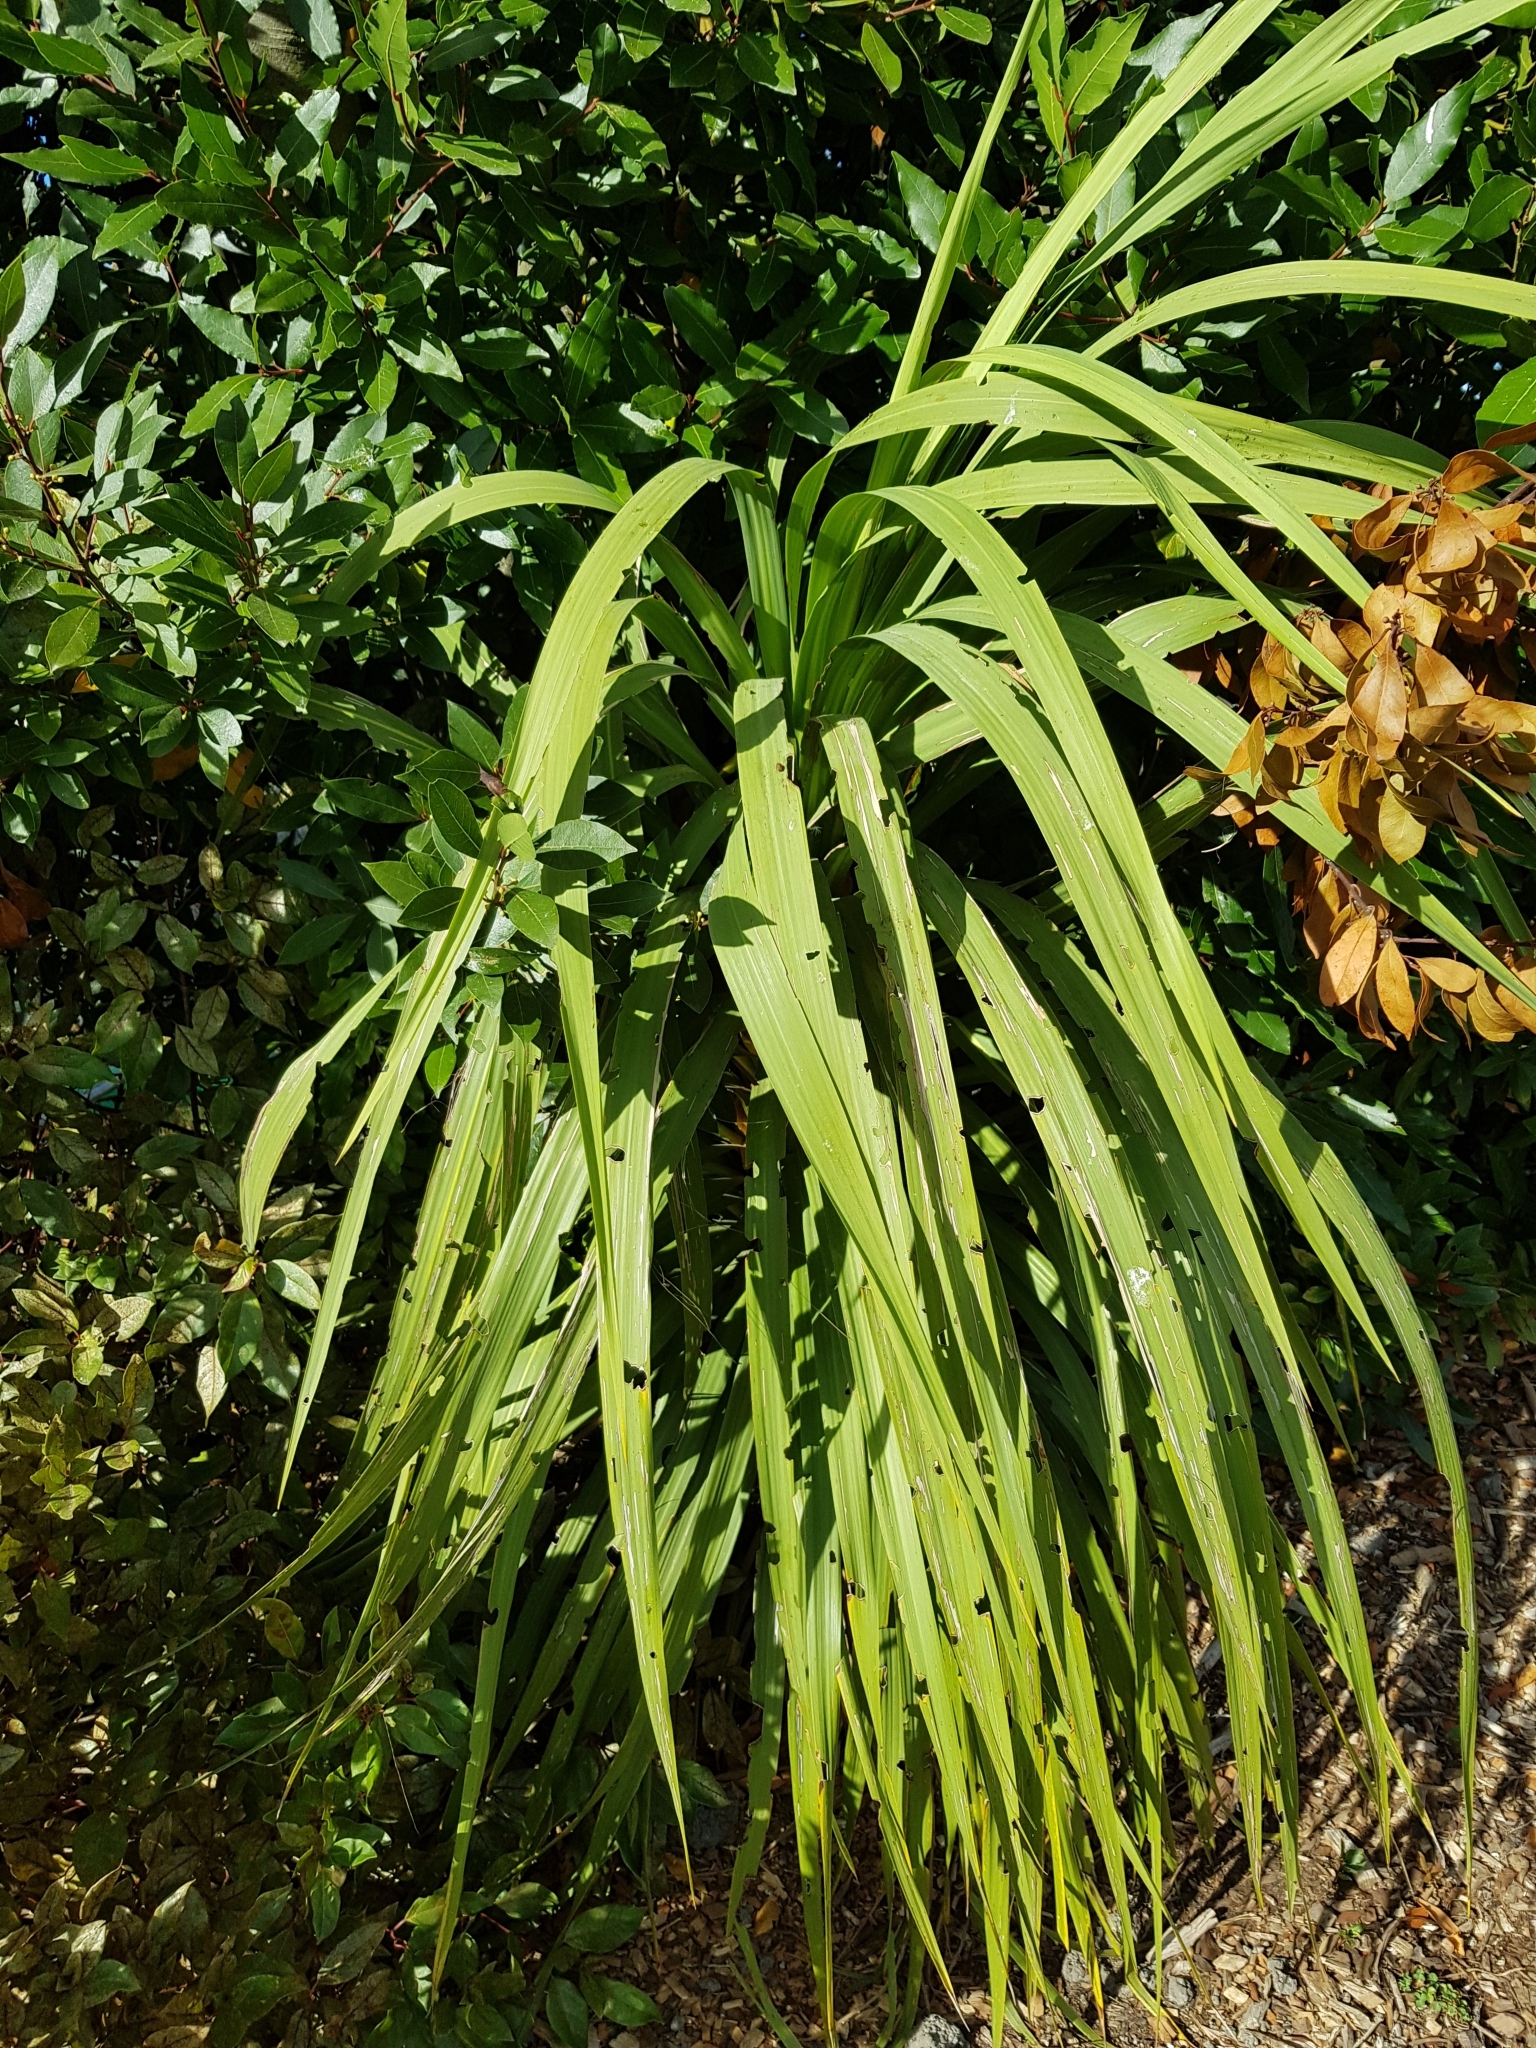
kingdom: Plantae
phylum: Tracheophyta
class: Liliopsida
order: Asparagales
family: Asparagaceae
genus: Cordyline
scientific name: Cordyline australis
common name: Cabbage-palm
